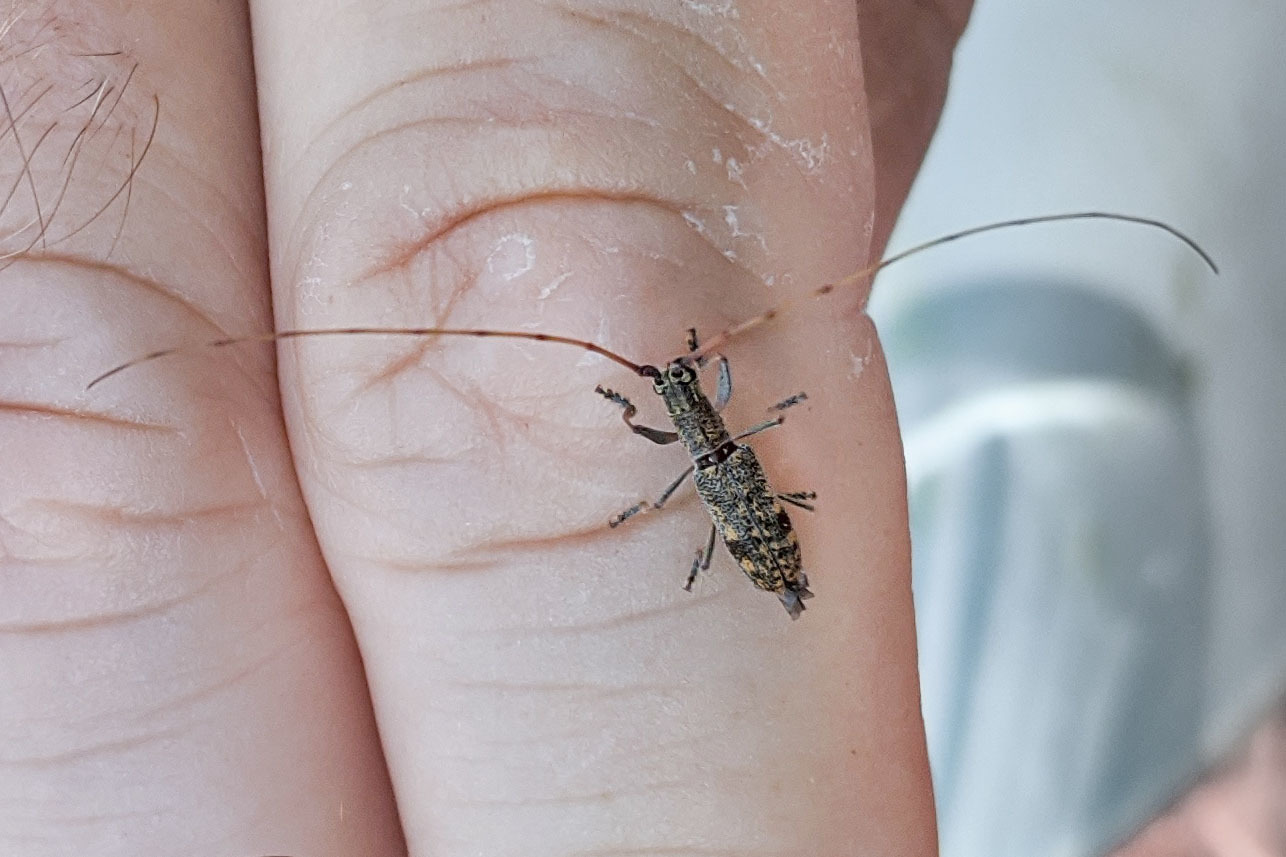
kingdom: Animalia
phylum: Arthropoda
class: Insecta
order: Coleoptera
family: Cerambycidae
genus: Dorcaschema
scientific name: Dorcaschema alternatum
